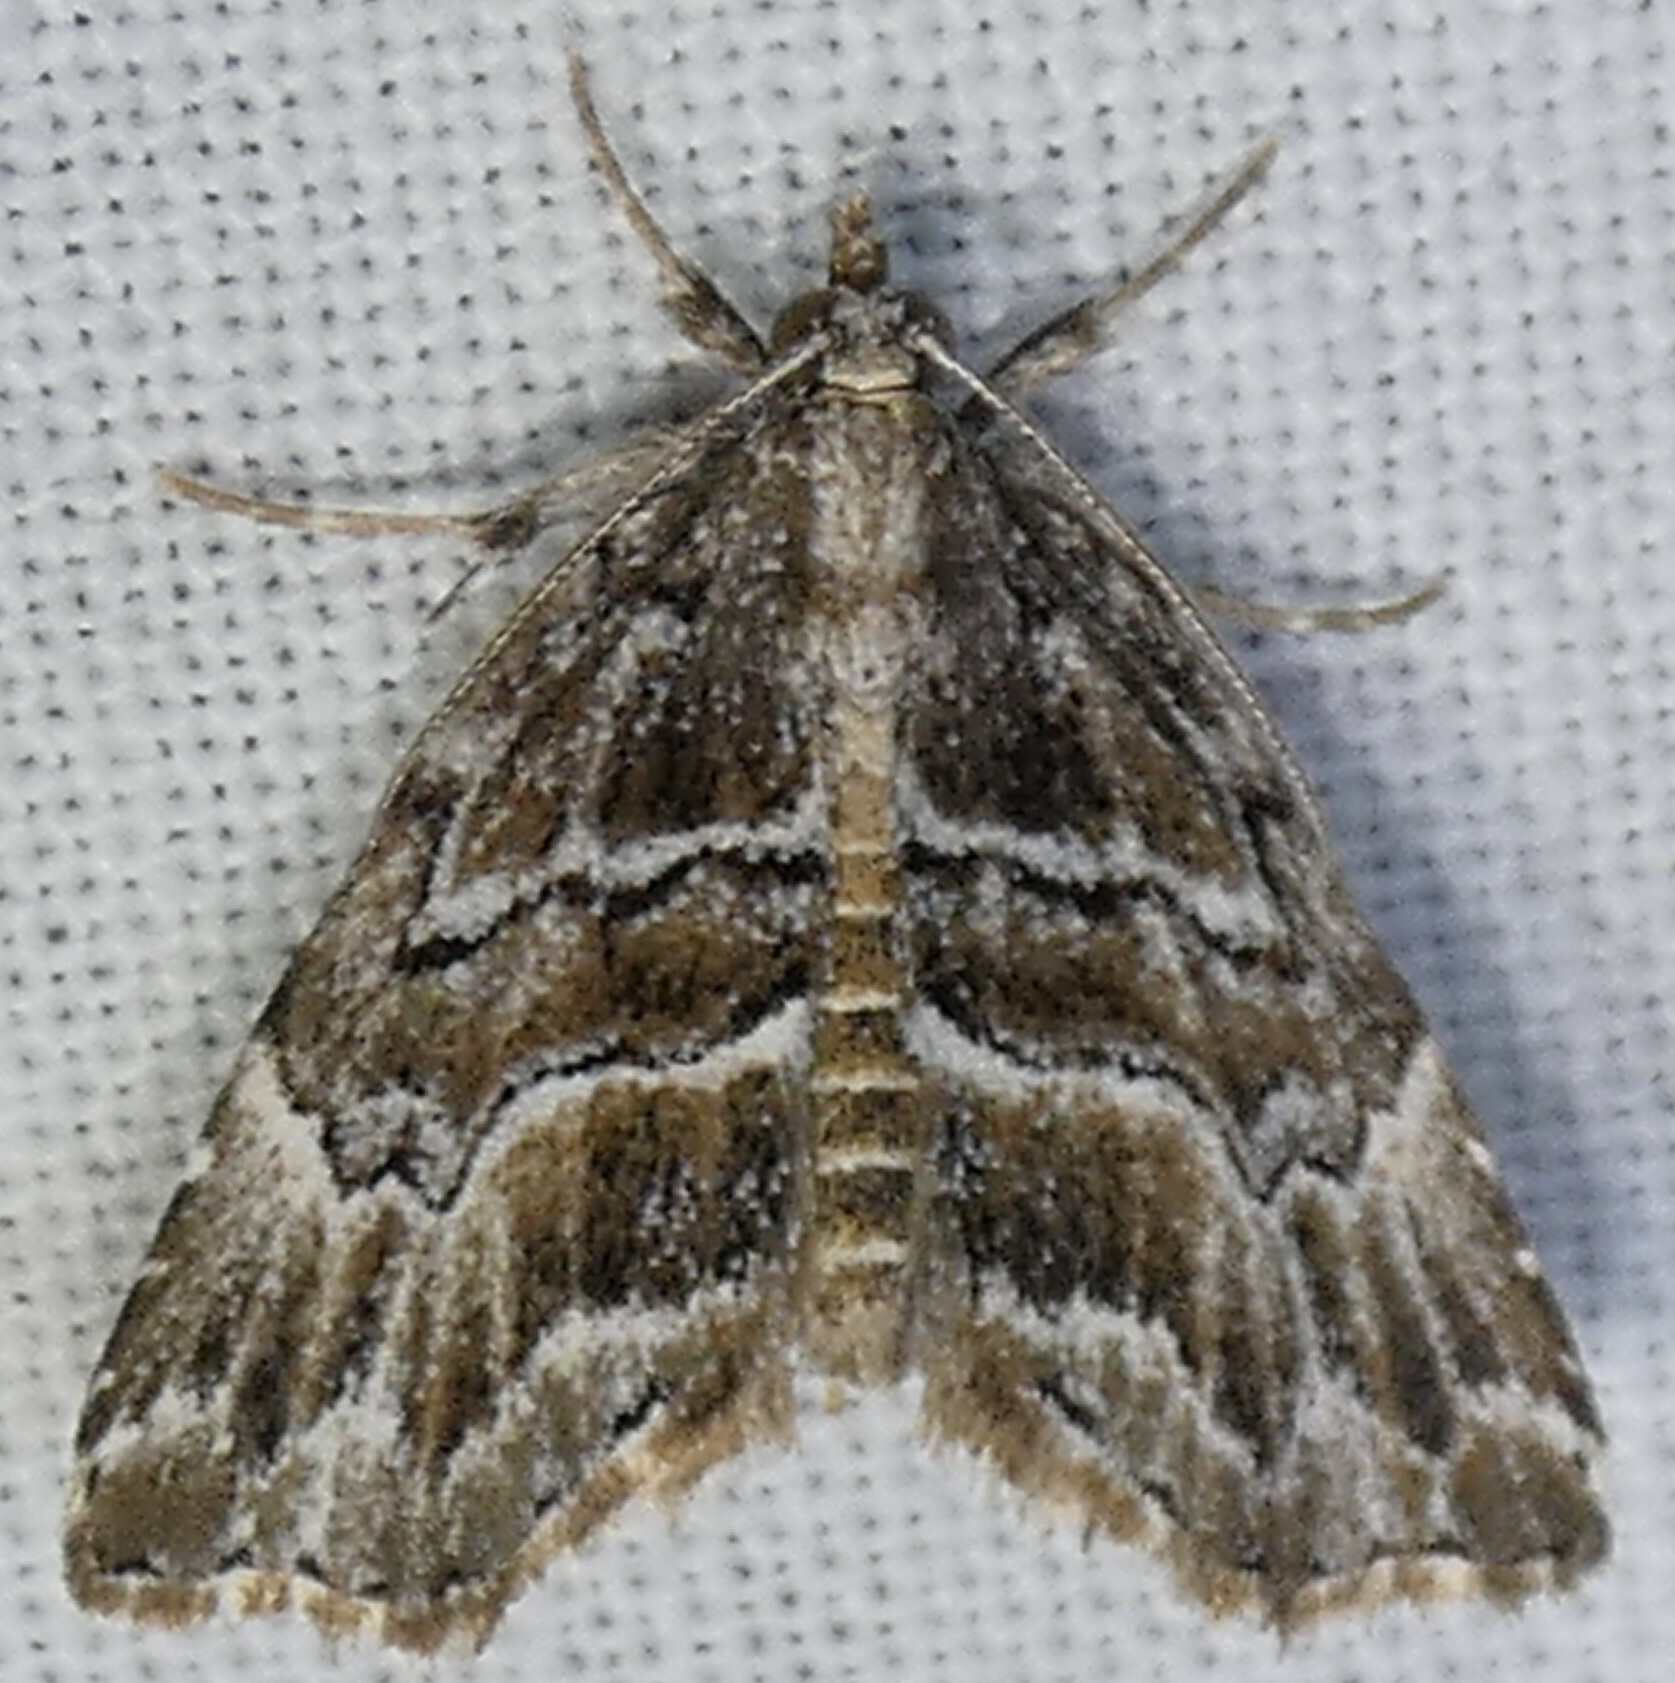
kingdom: Animalia
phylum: Arthropoda
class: Insecta
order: Lepidoptera
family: Erebidae
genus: Cutina
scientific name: Cutina arcuata
